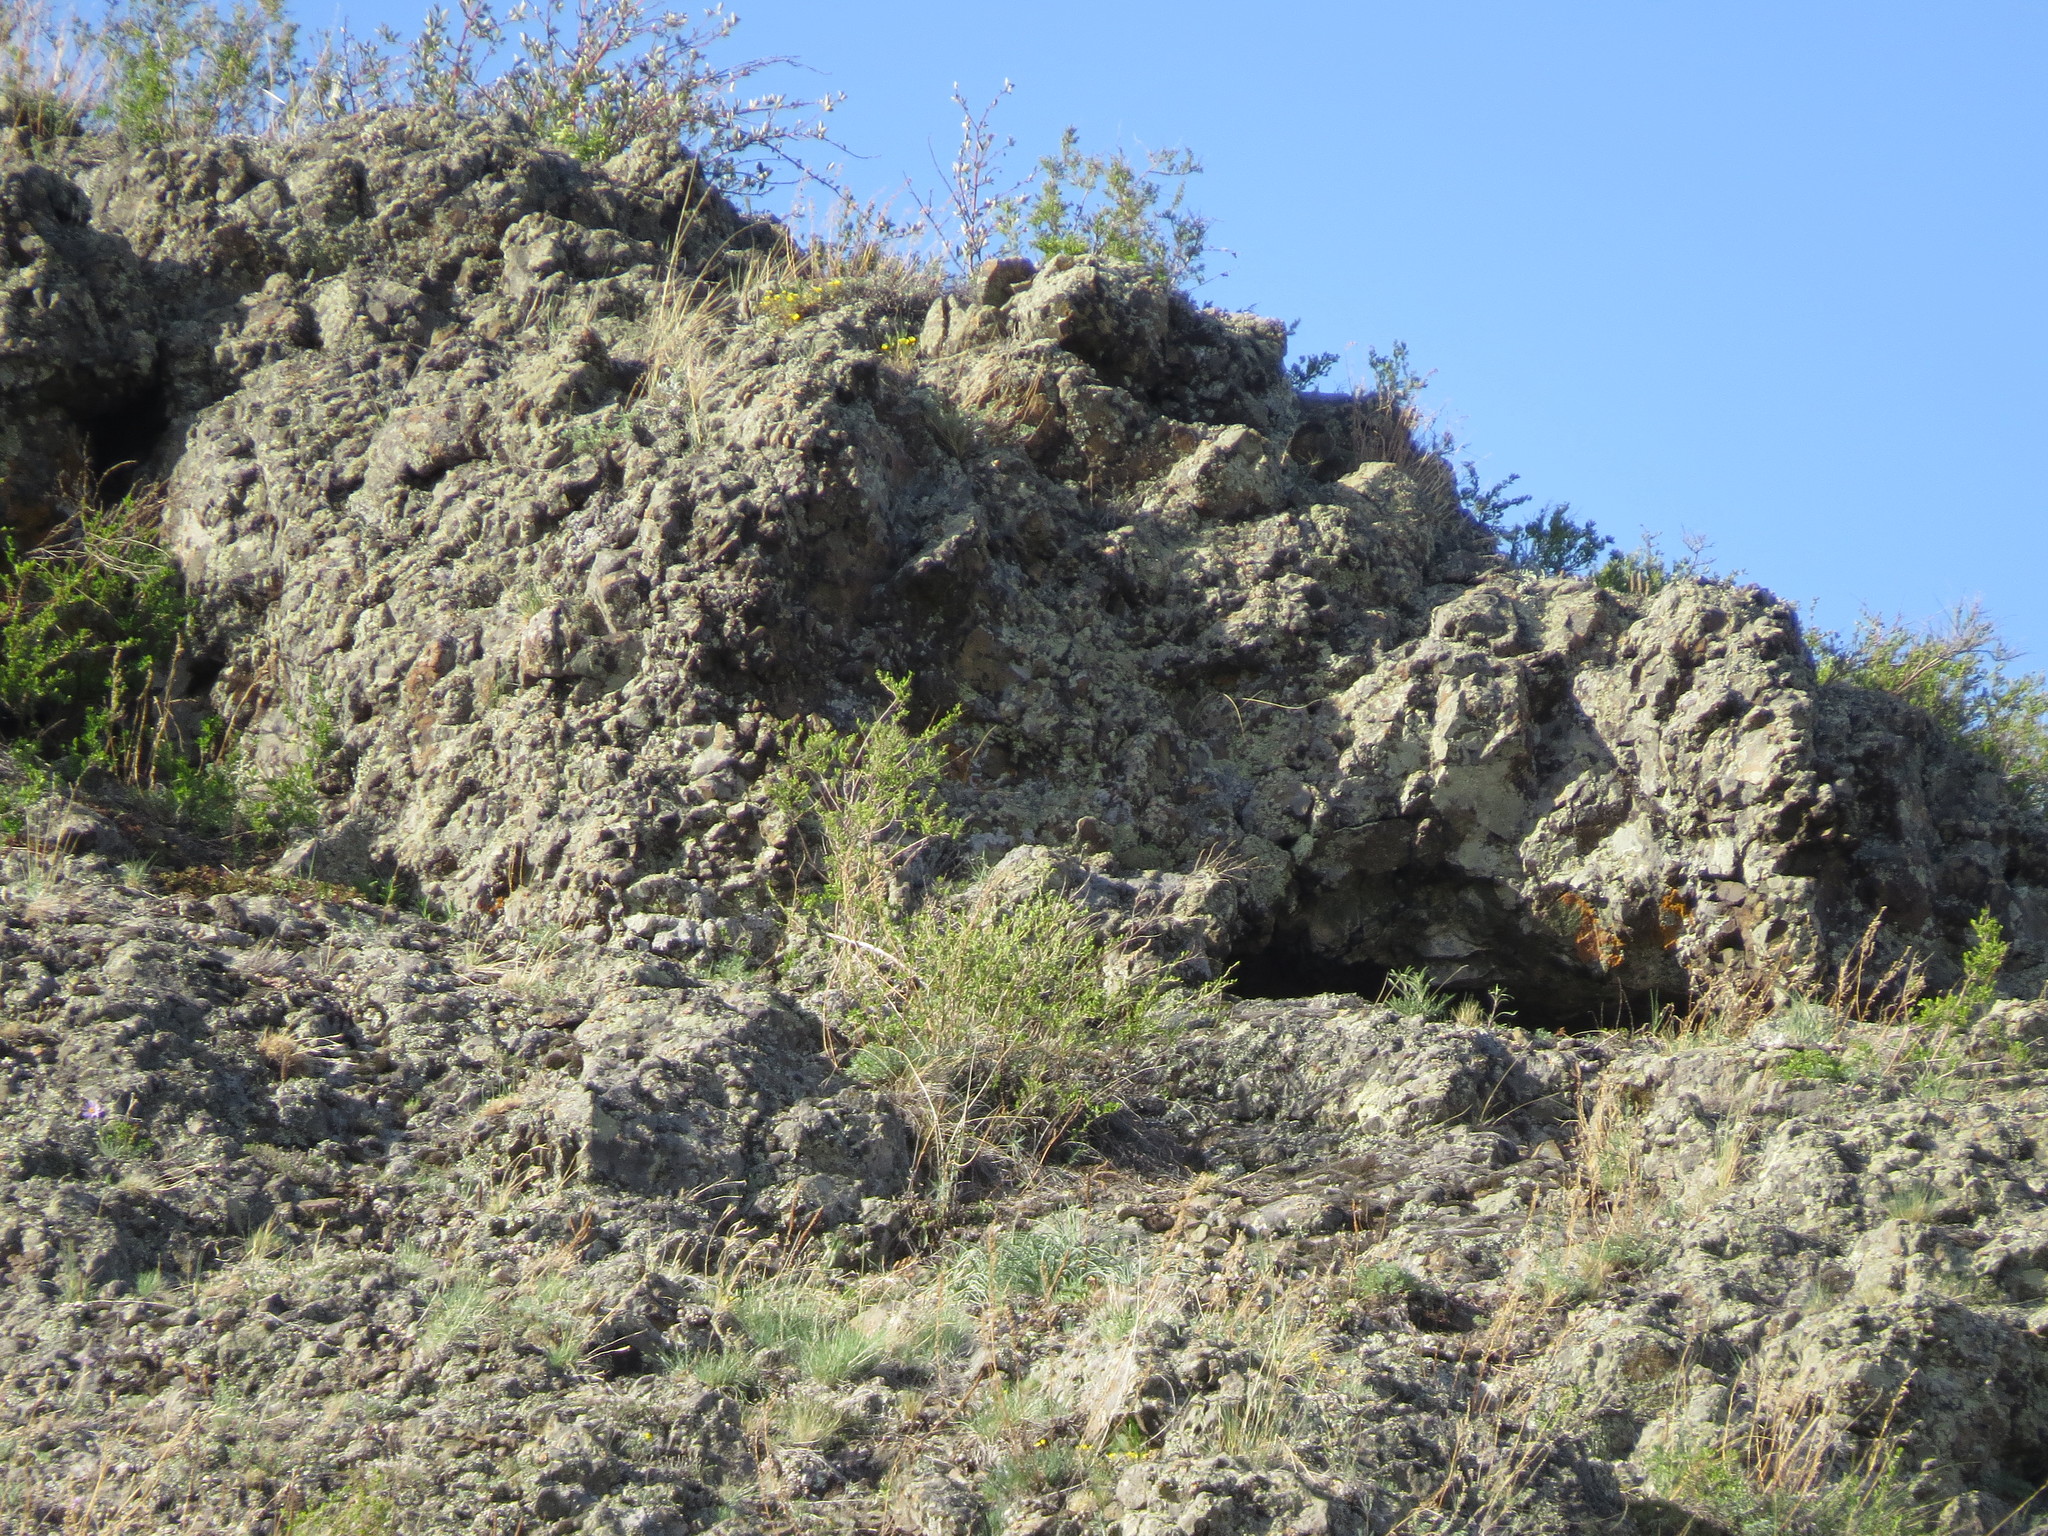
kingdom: Plantae
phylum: Tracheophyta
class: Magnoliopsida
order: Rosales
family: Rosaceae
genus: Prunus
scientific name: Prunus fruticosa
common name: European dwarf cherry
